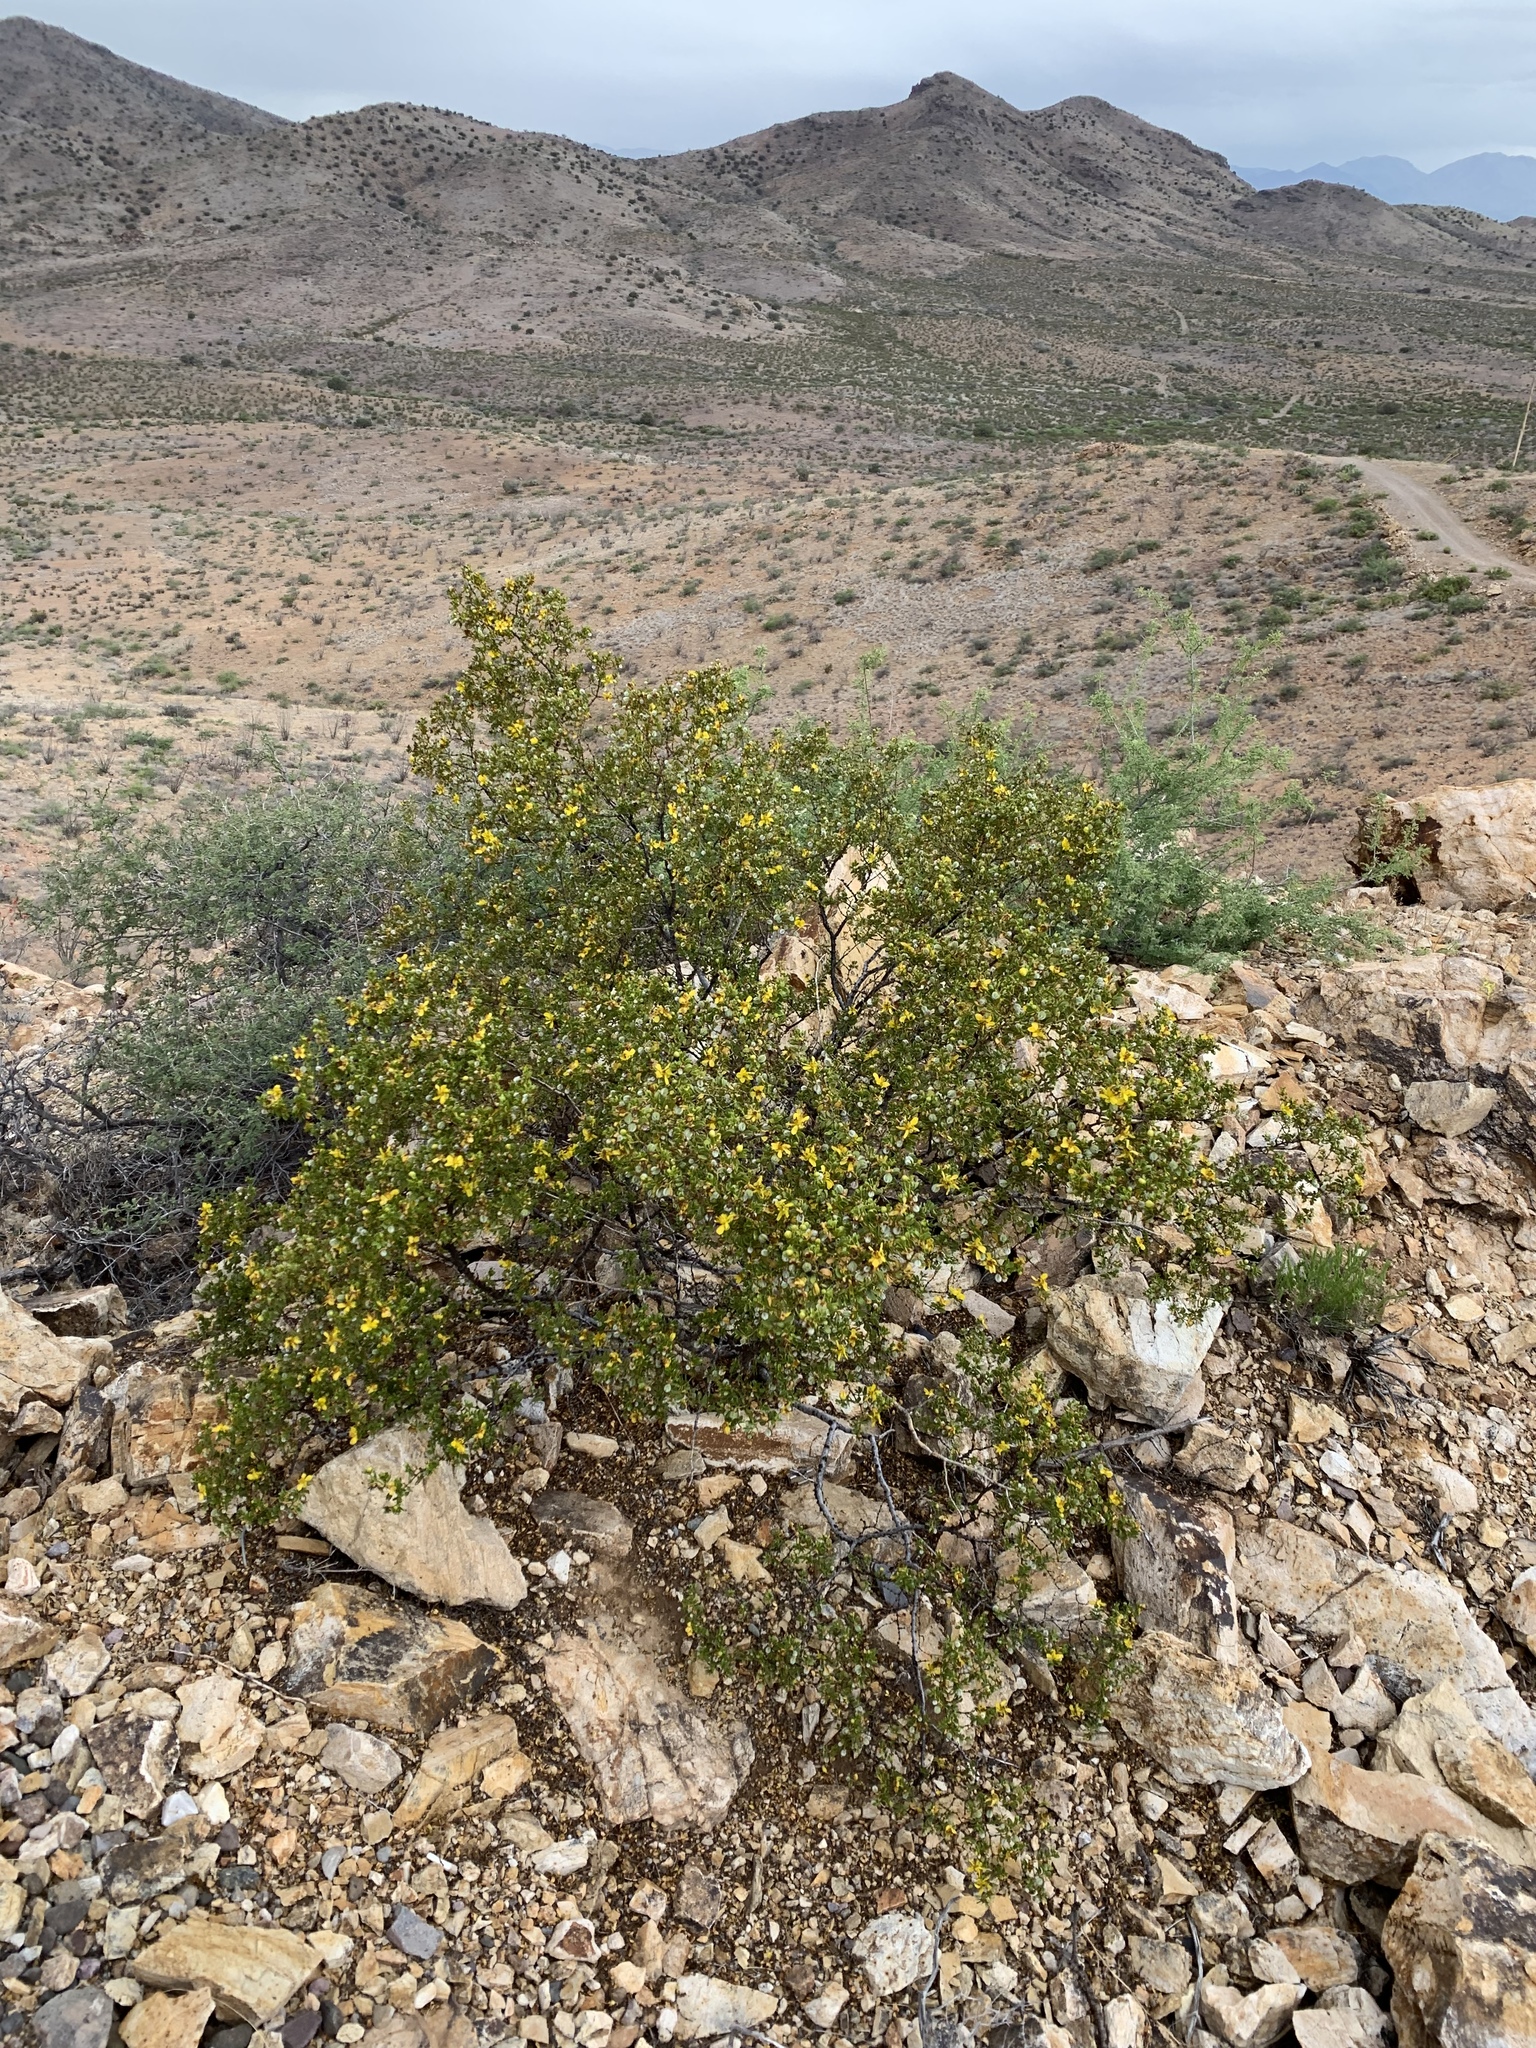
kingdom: Plantae
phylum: Tracheophyta
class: Magnoliopsida
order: Zygophyllales
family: Zygophyllaceae
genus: Larrea
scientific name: Larrea tridentata
